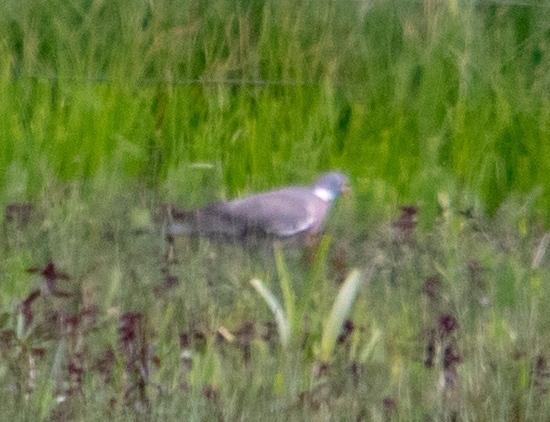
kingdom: Animalia
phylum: Chordata
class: Aves
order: Columbiformes
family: Columbidae
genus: Columba
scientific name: Columba palumbus
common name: Common wood pigeon
